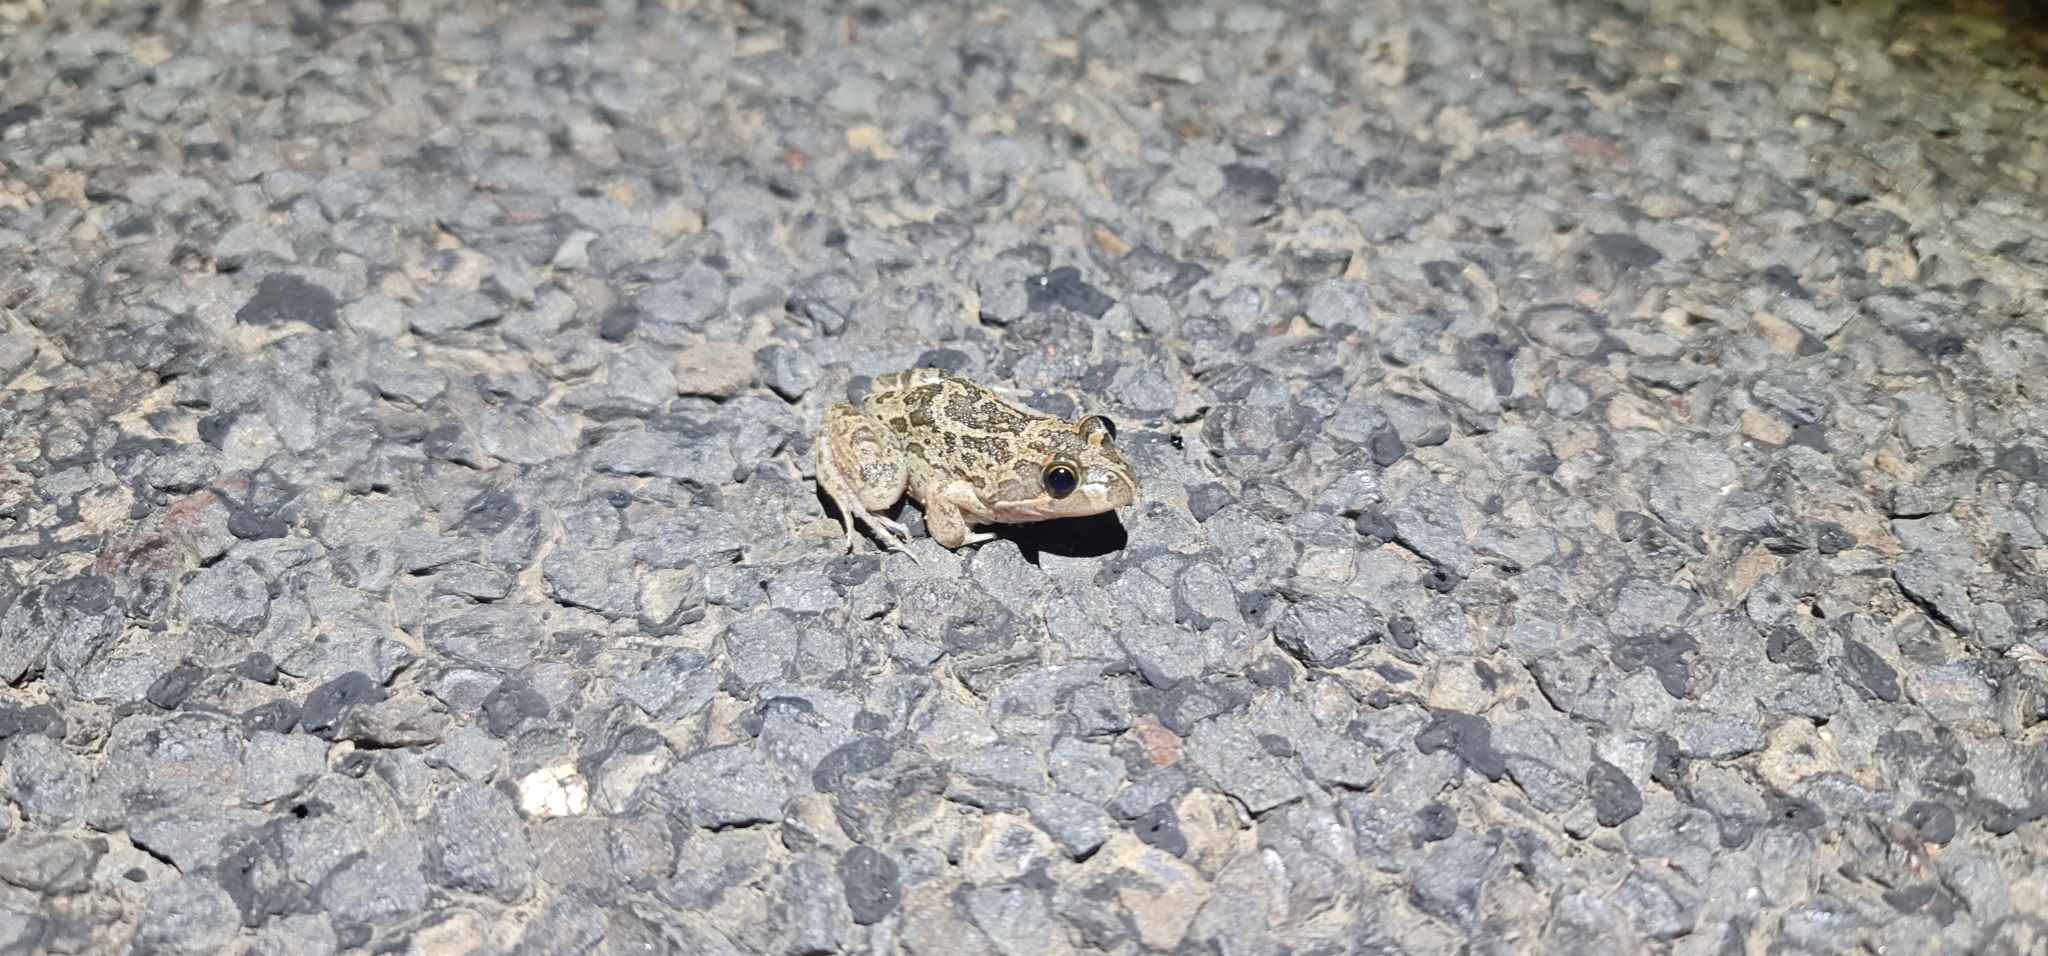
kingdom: Animalia
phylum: Chordata
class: Amphibia
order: Anura
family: Limnodynastidae
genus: Limnodynastes
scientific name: Limnodynastes fletcheri
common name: Barking frog
